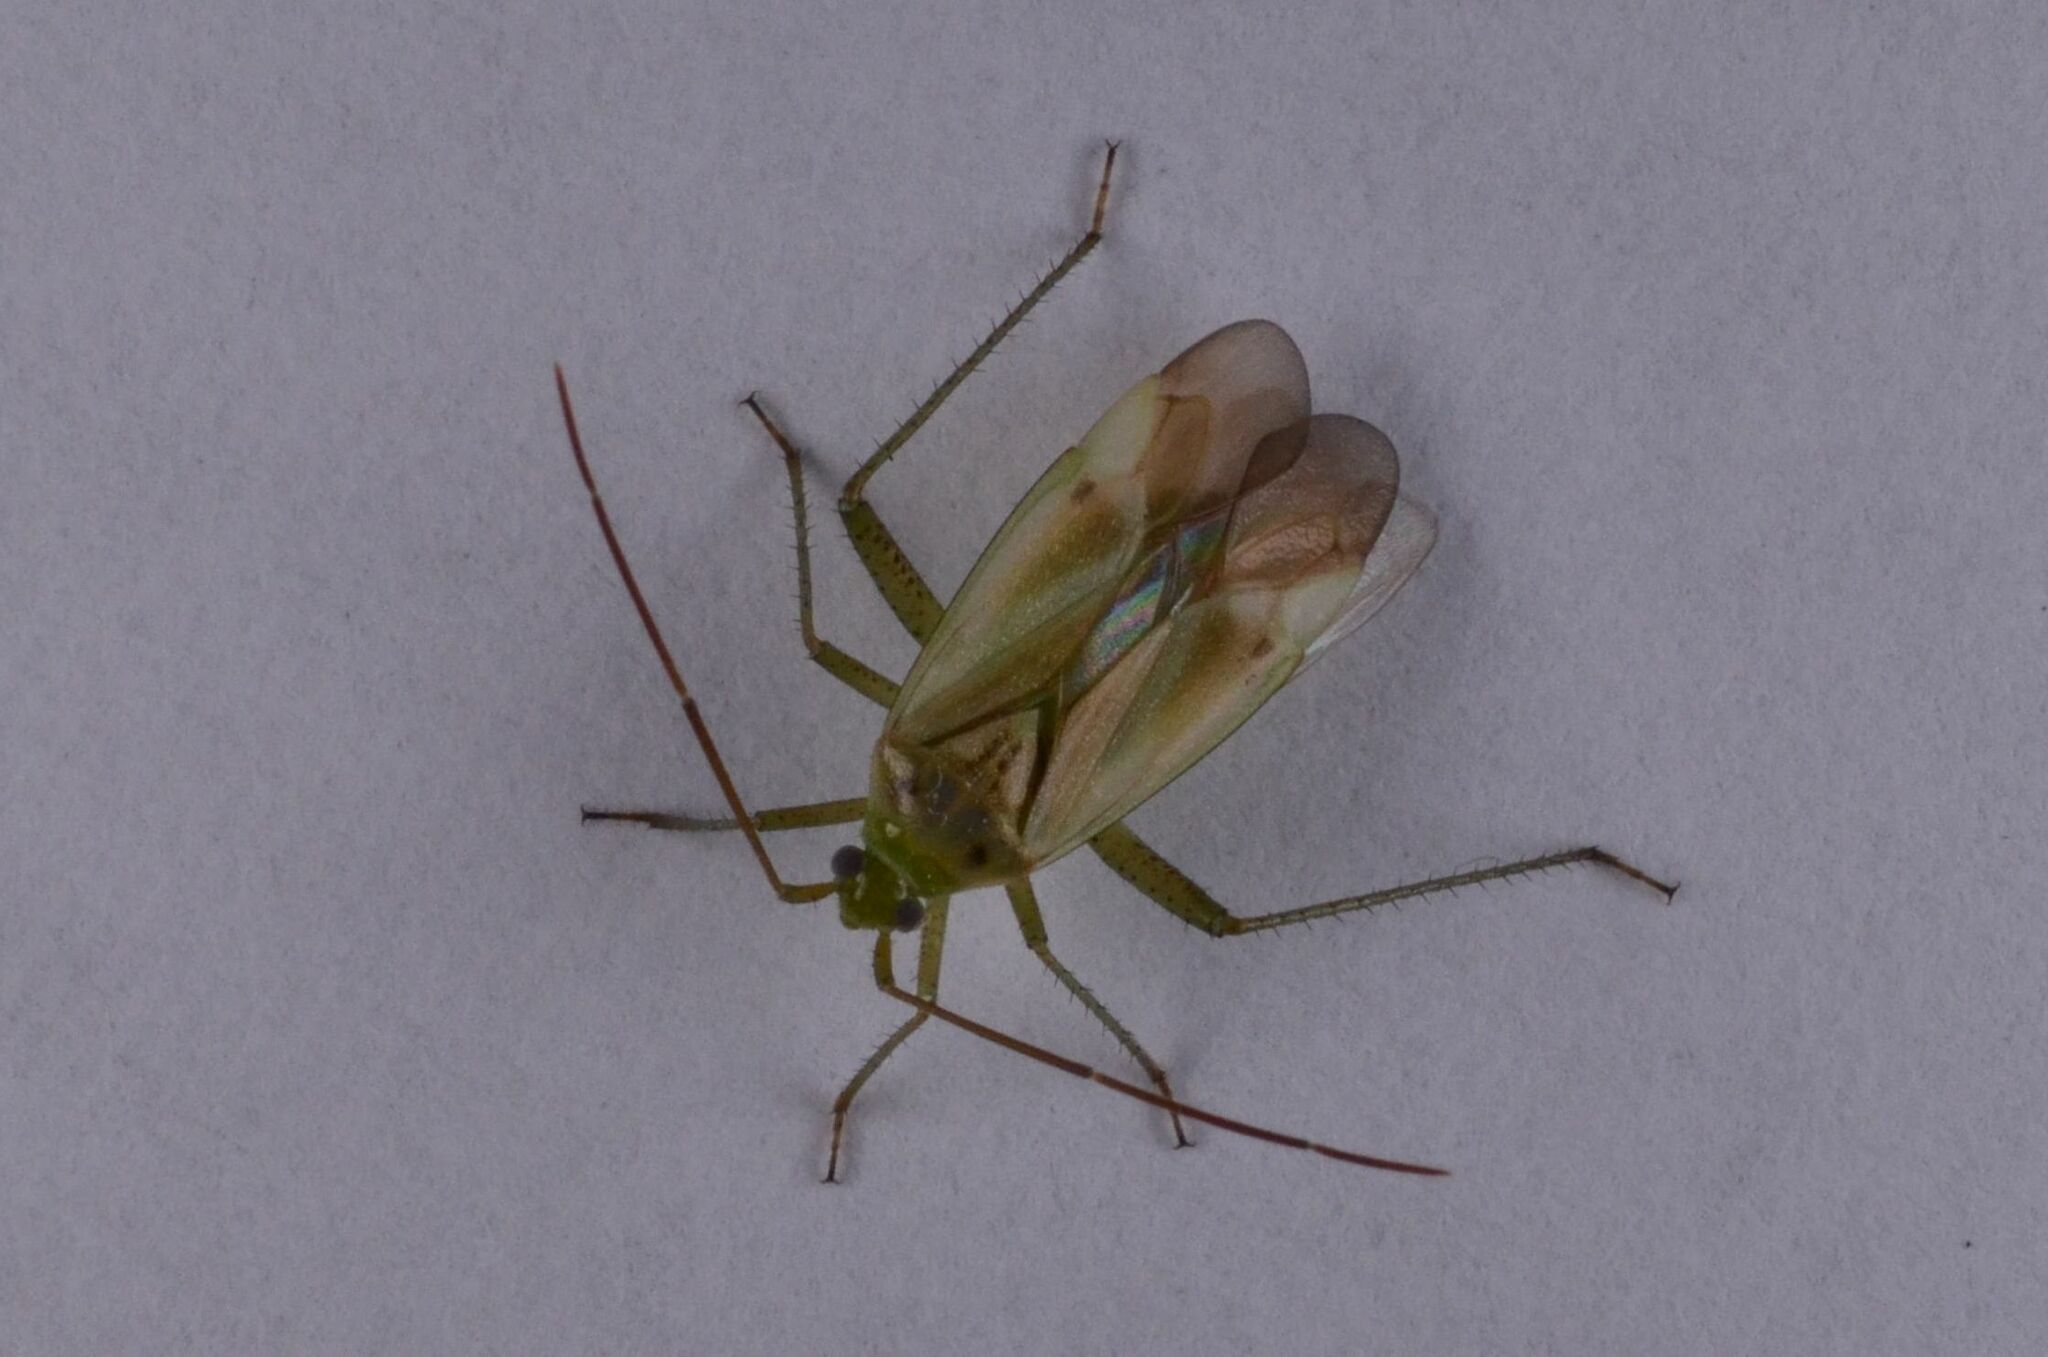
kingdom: Animalia
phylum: Arthropoda
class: Insecta
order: Hemiptera
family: Miridae
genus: Adelphocoris
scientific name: Adelphocoris lineolatus
